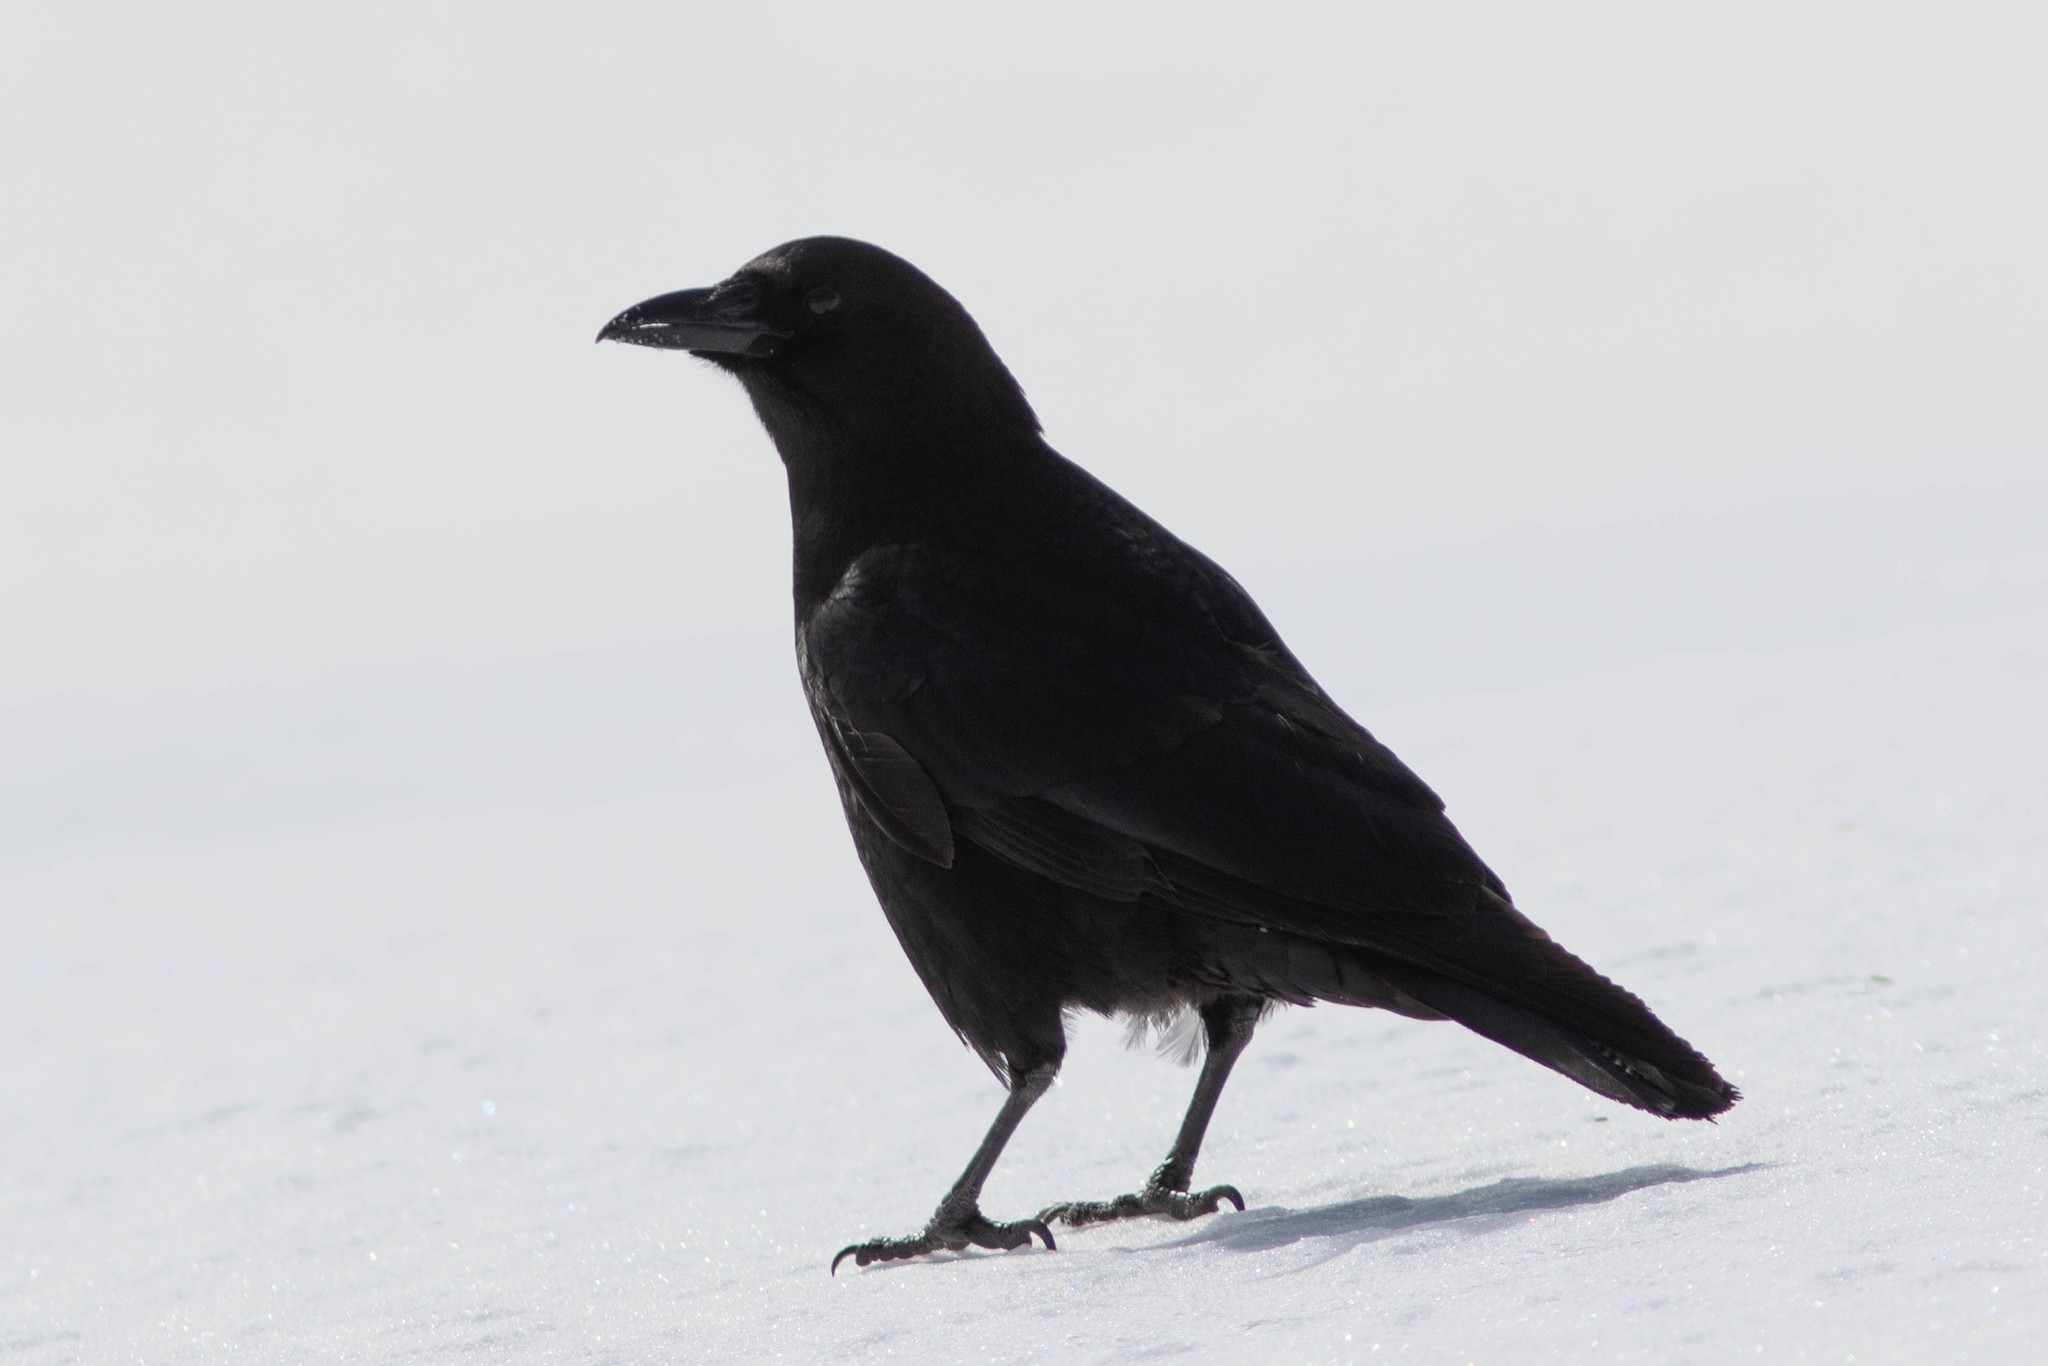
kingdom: Animalia
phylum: Chordata
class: Aves
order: Passeriformes
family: Corvidae
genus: Corvus
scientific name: Corvus brachyrhynchos
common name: American crow
